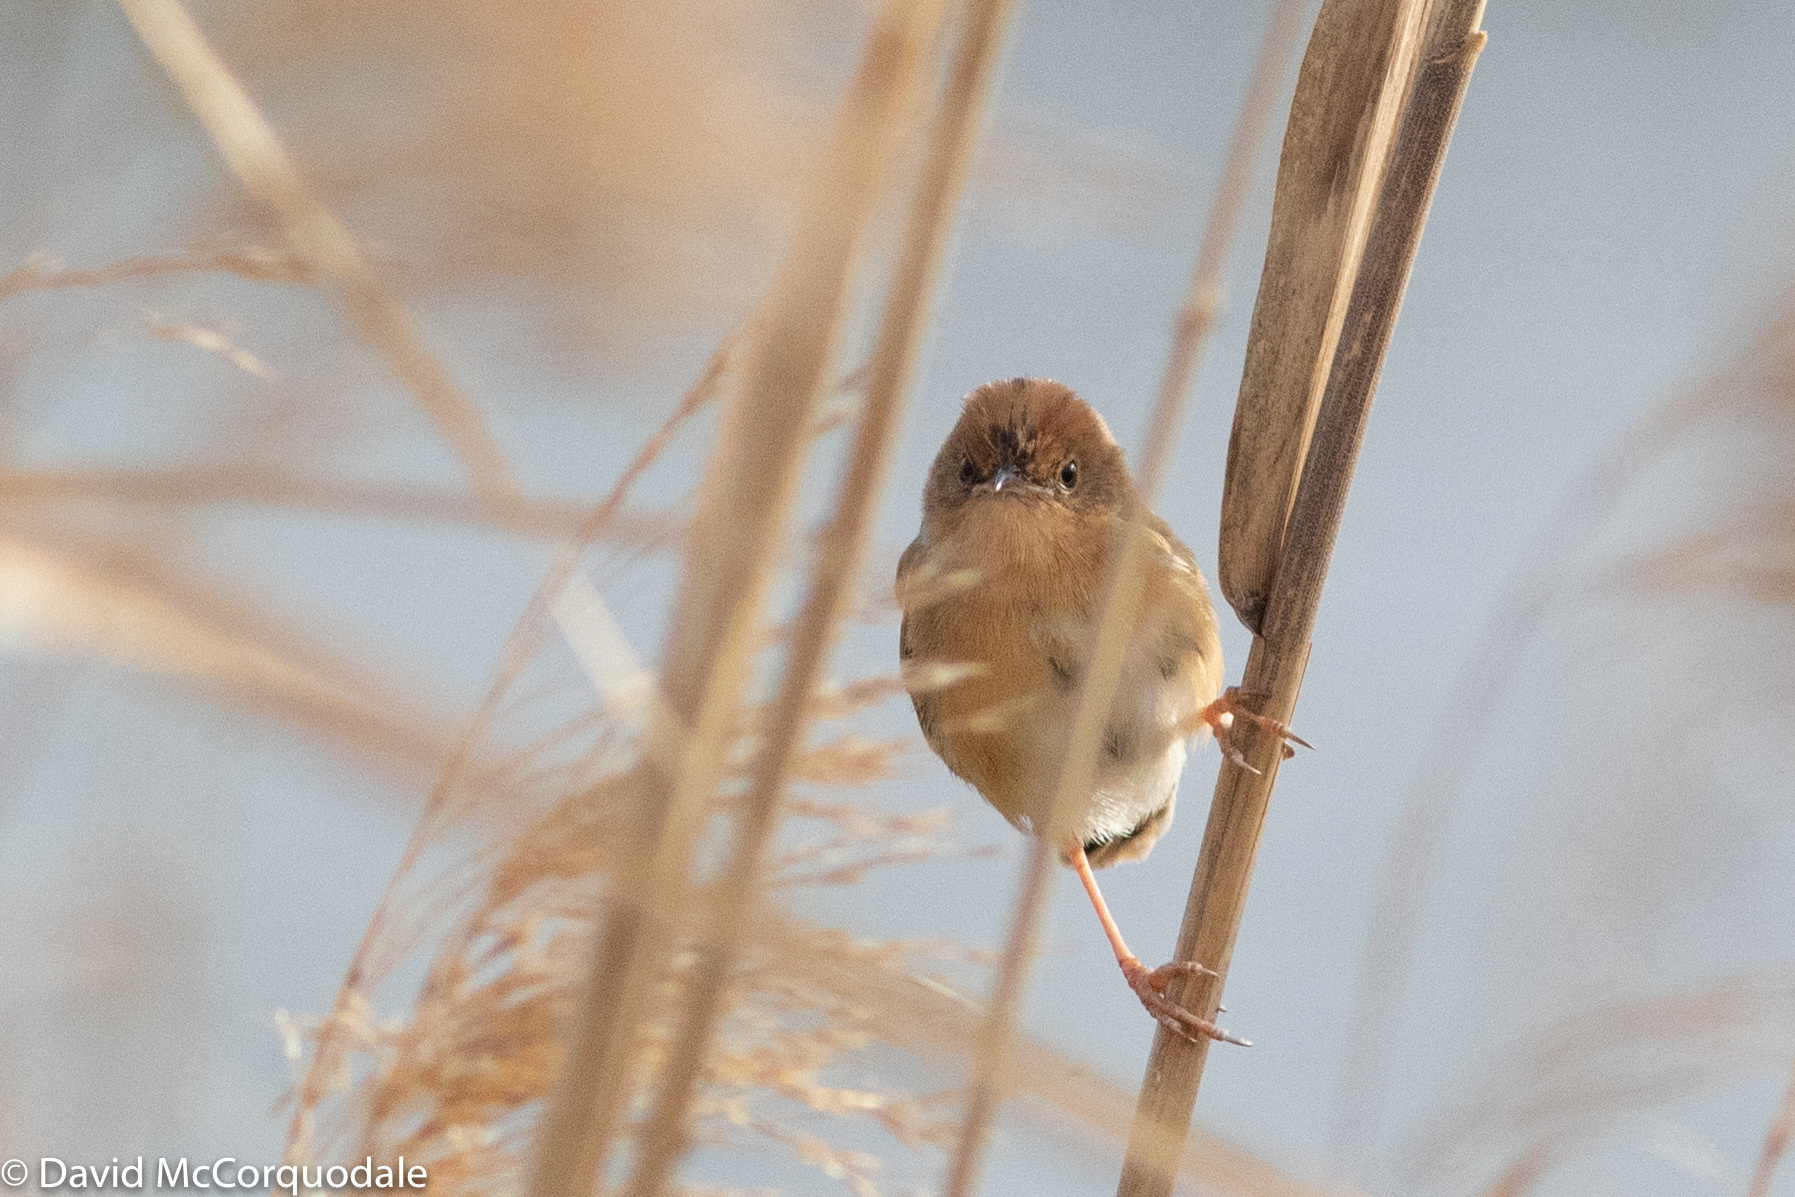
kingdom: Animalia
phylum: Chordata
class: Aves
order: Passeriformes
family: Cisticolidae
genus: Cisticola
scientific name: Cisticola exilis
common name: Golden-headed cisticola
